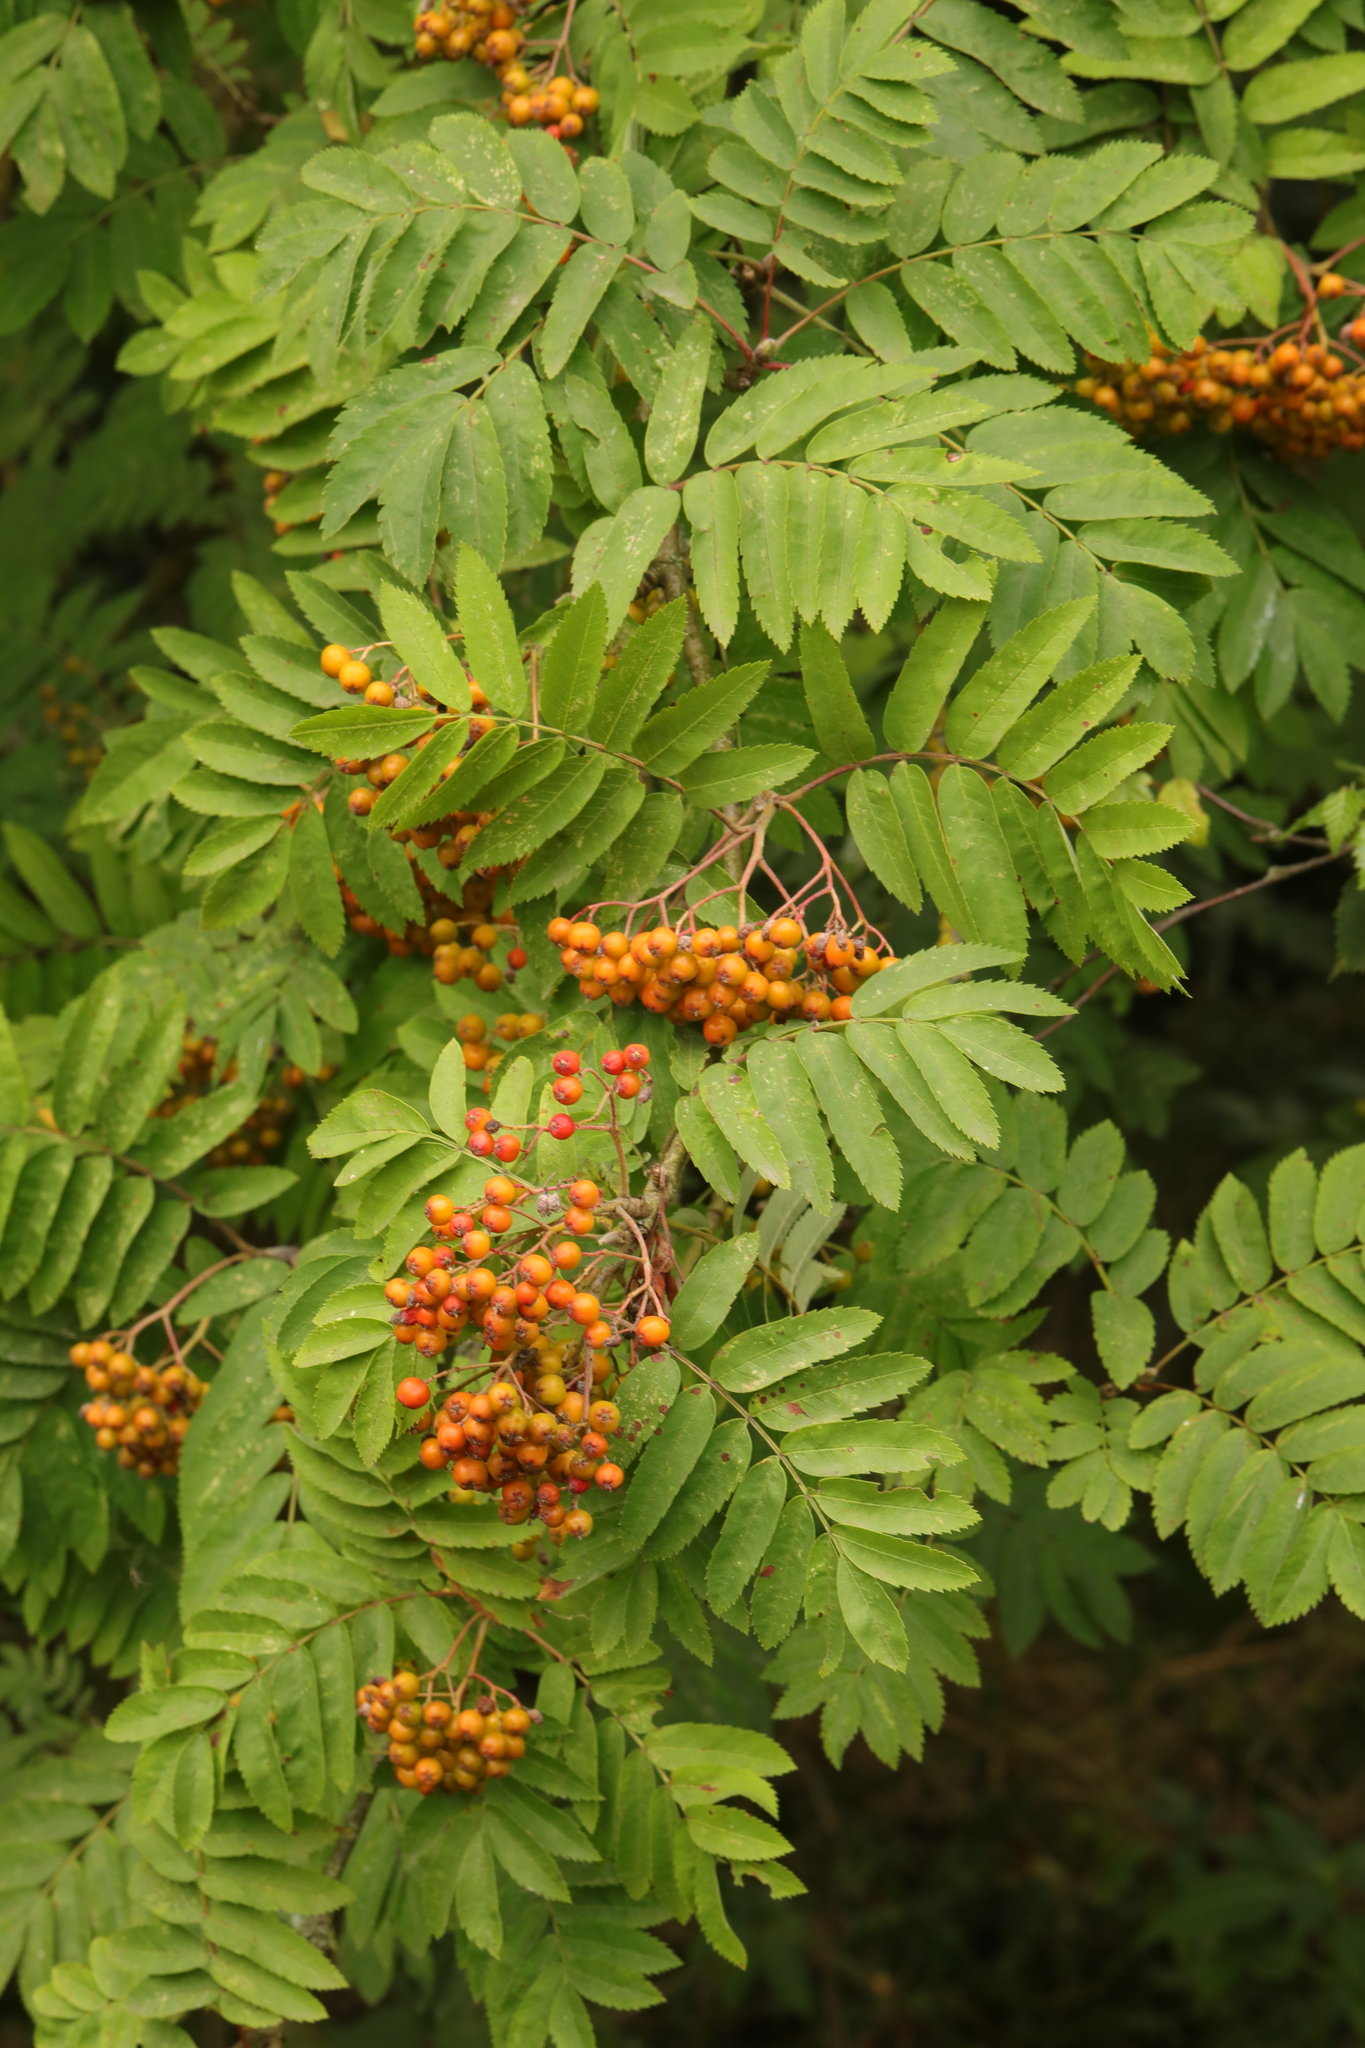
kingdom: Plantae
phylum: Tracheophyta
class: Magnoliopsida
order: Rosales
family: Rosaceae
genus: Sorbus
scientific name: Sorbus aucuparia
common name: Rowan
